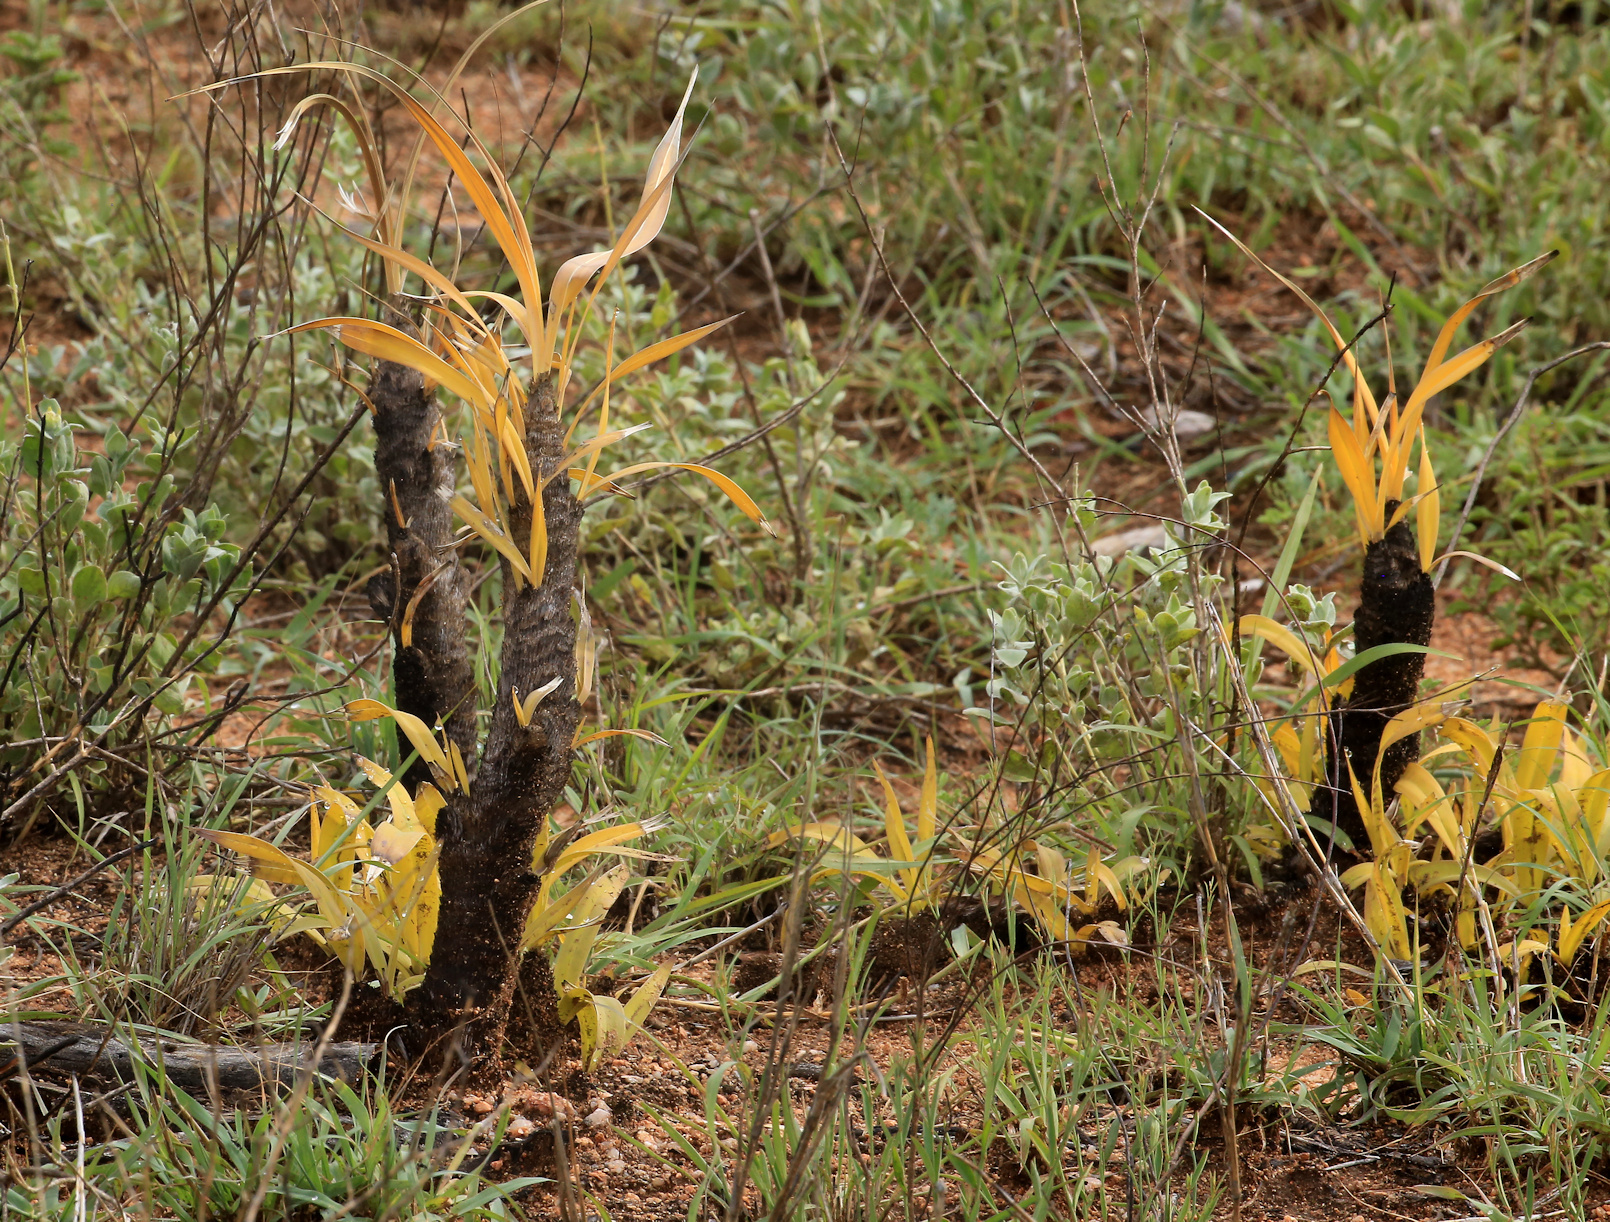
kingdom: Plantae
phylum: Tracheophyta
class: Liliopsida
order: Pandanales
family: Velloziaceae
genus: Xerophyta
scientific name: Xerophyta retinervis
